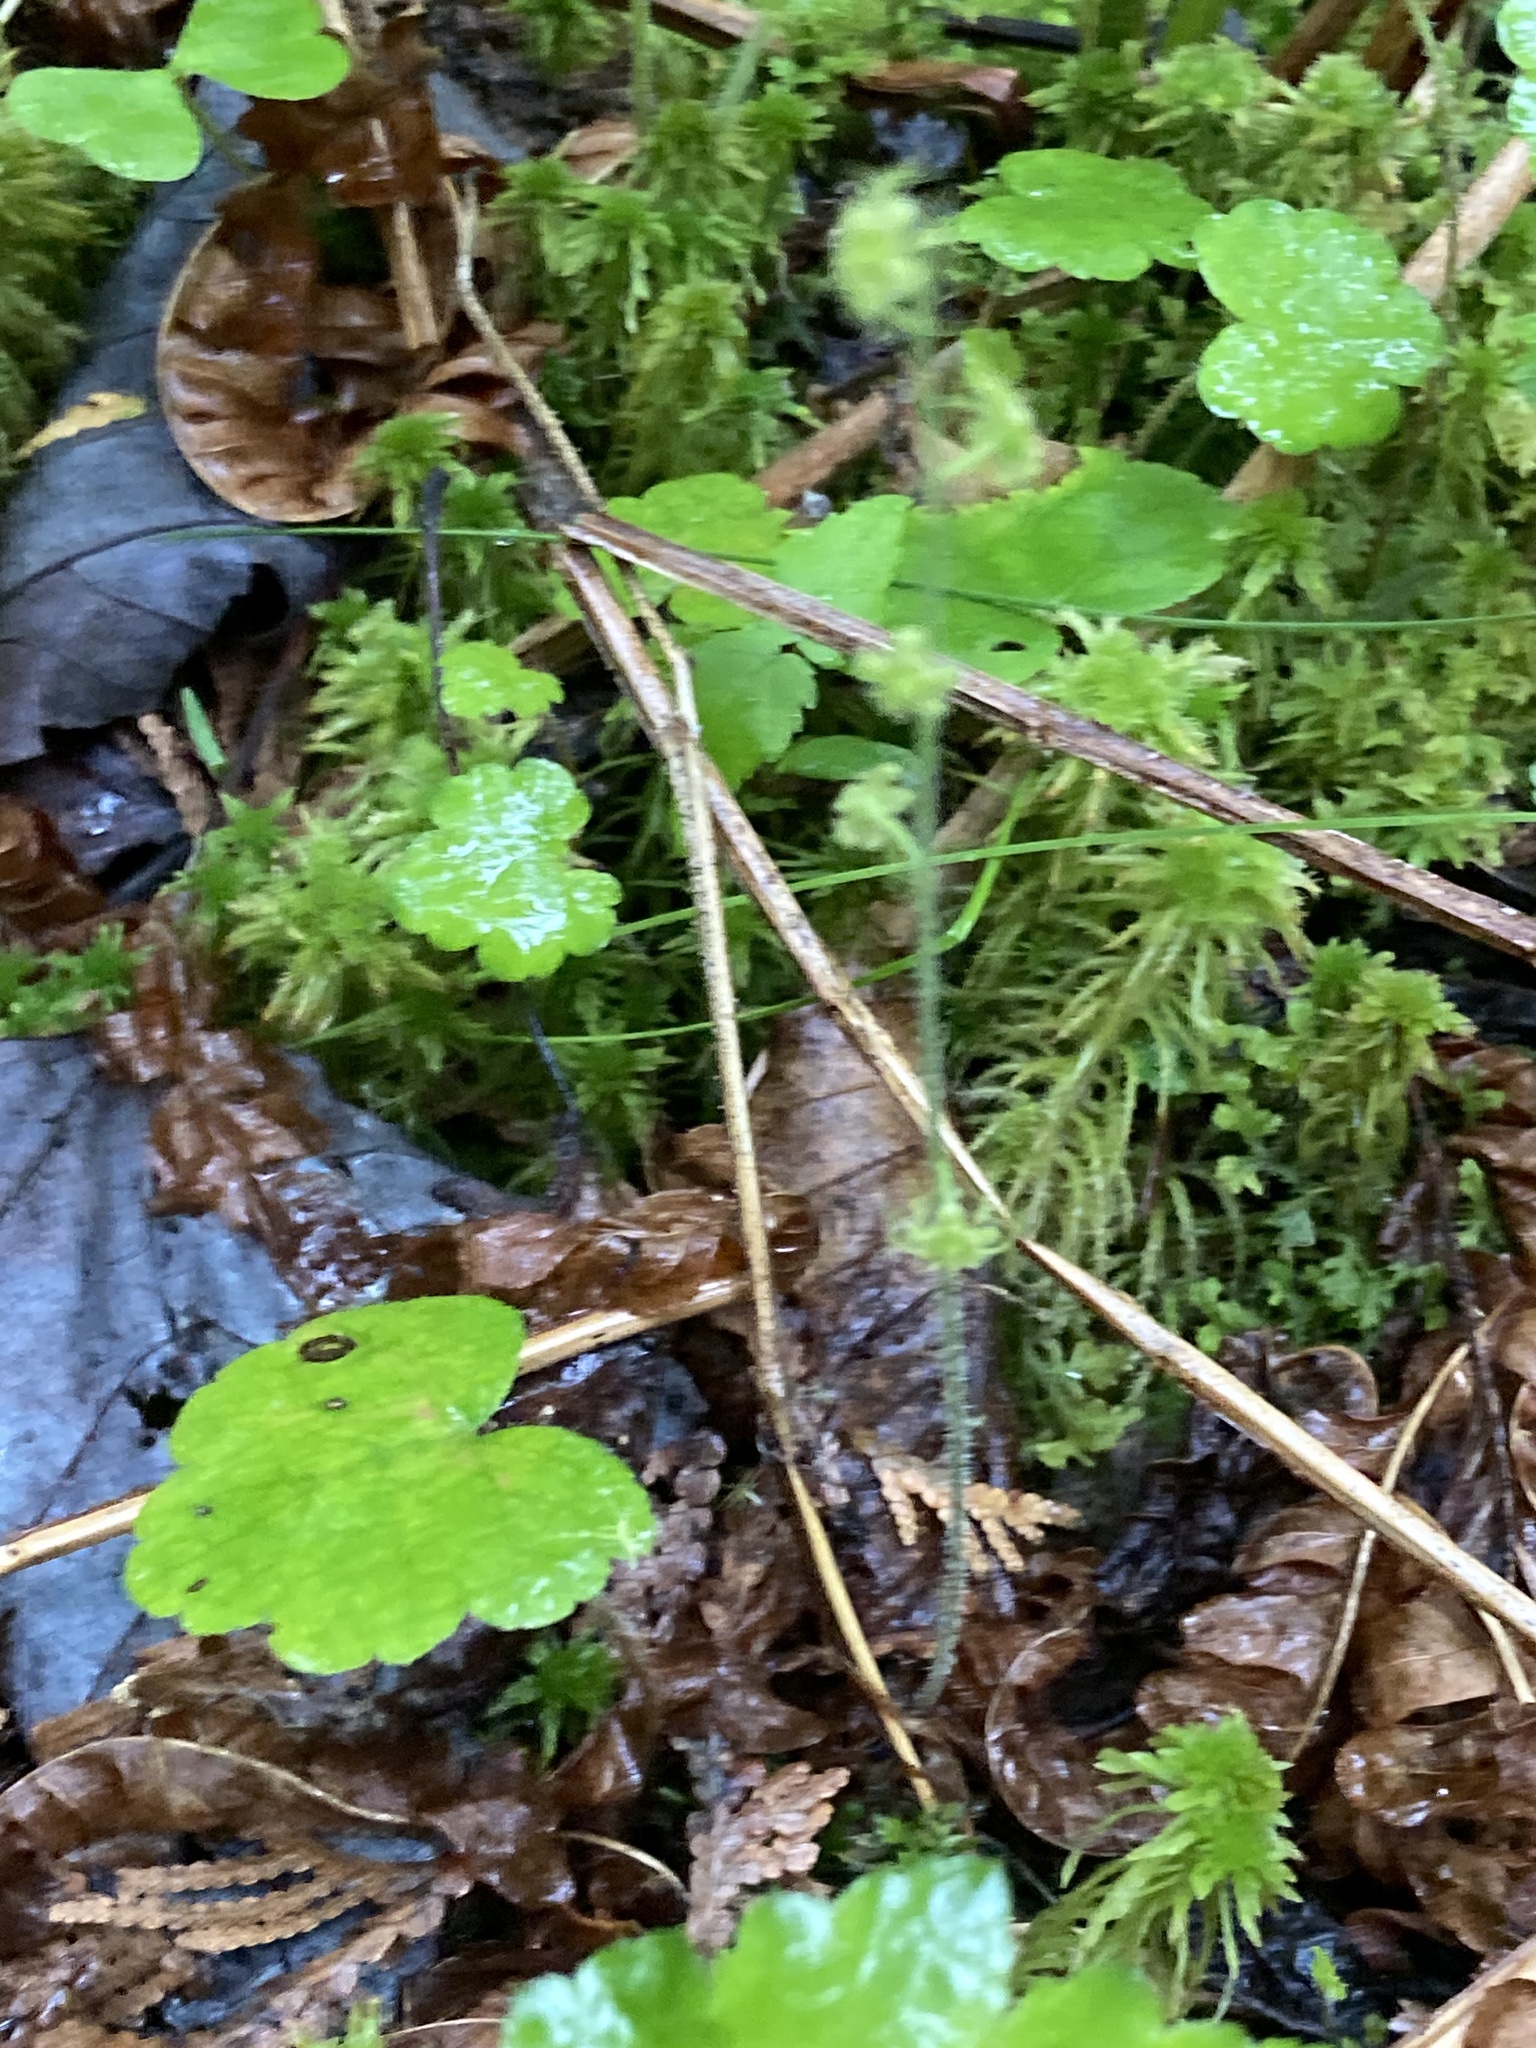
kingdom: Plantae
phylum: Tracheophyta
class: Magnoliopsida
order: Saxifragales
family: Saxifragaceae
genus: Mitella
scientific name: Mitella nuda
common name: Bare-stemmed bishop's-cap
